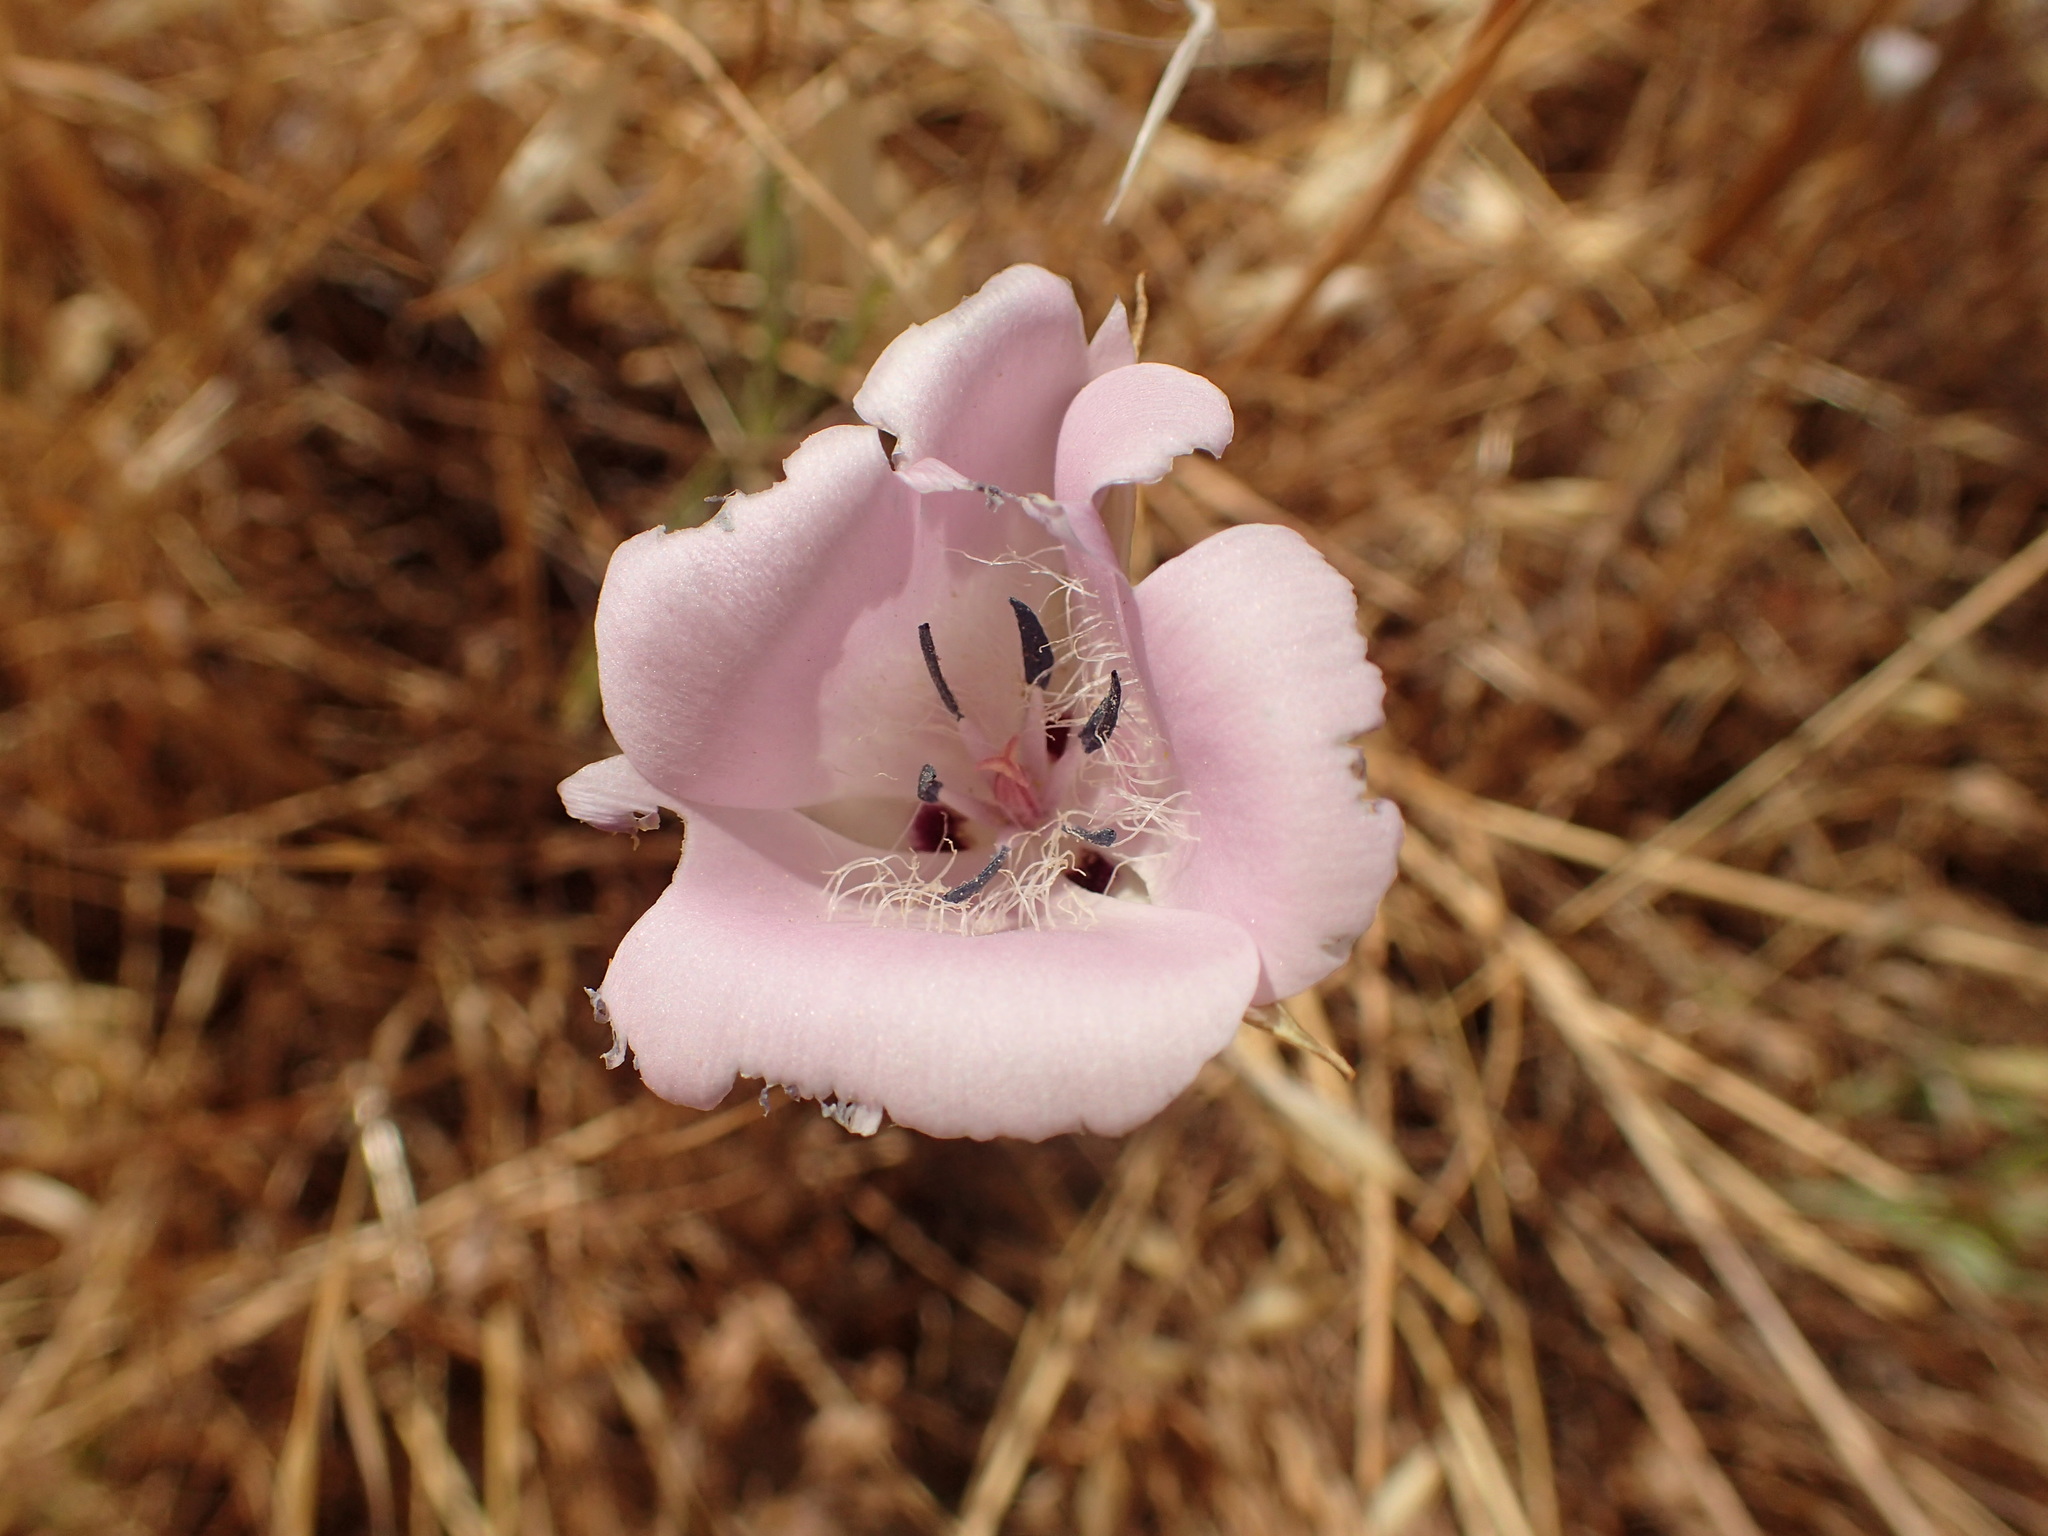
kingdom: Plantae
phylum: Tracheophyta
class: Liliopsida
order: Liliales
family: Liliaceae
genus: Calochortus
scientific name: Calochortus splendens
